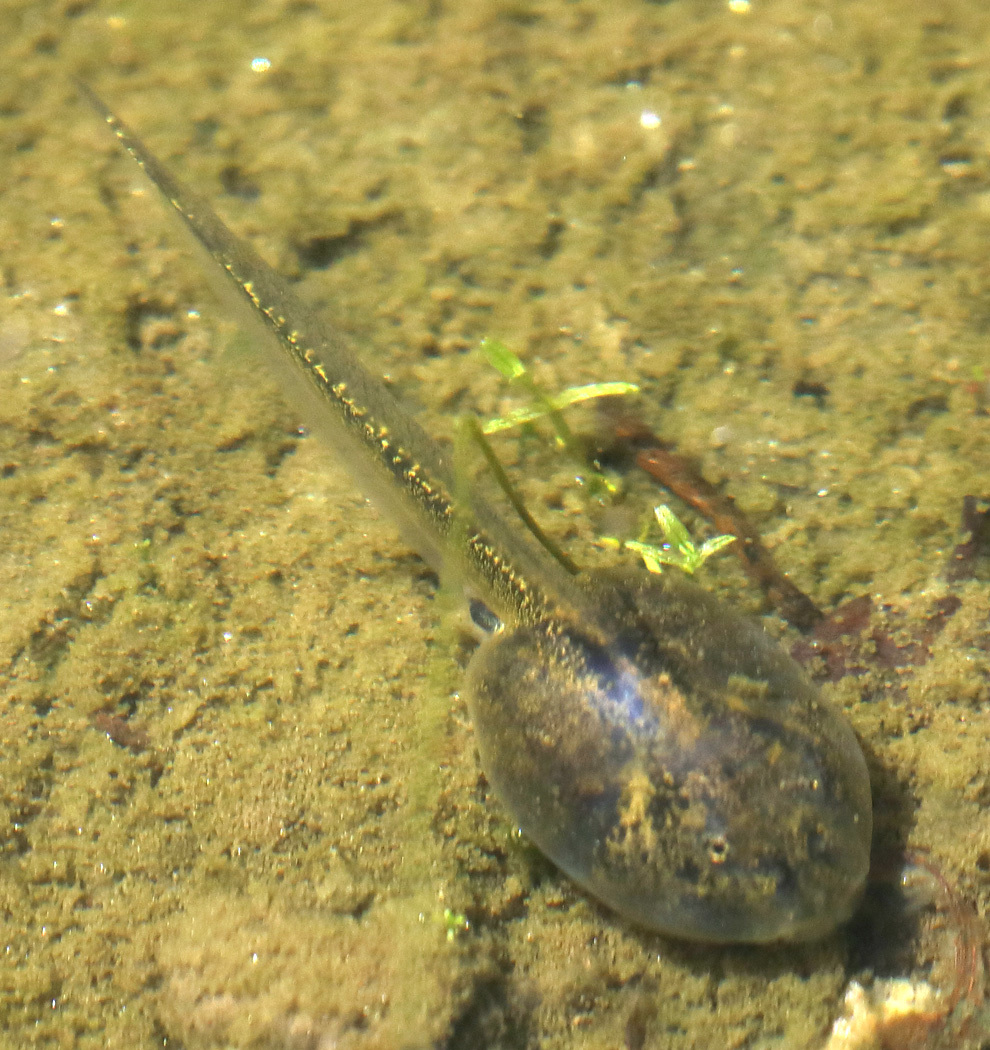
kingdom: Animalia
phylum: Chordata
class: Amphibia
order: Anura
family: Scaphiopodidae
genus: Spea
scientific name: Spea hammondii
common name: Western spadefoot toad
